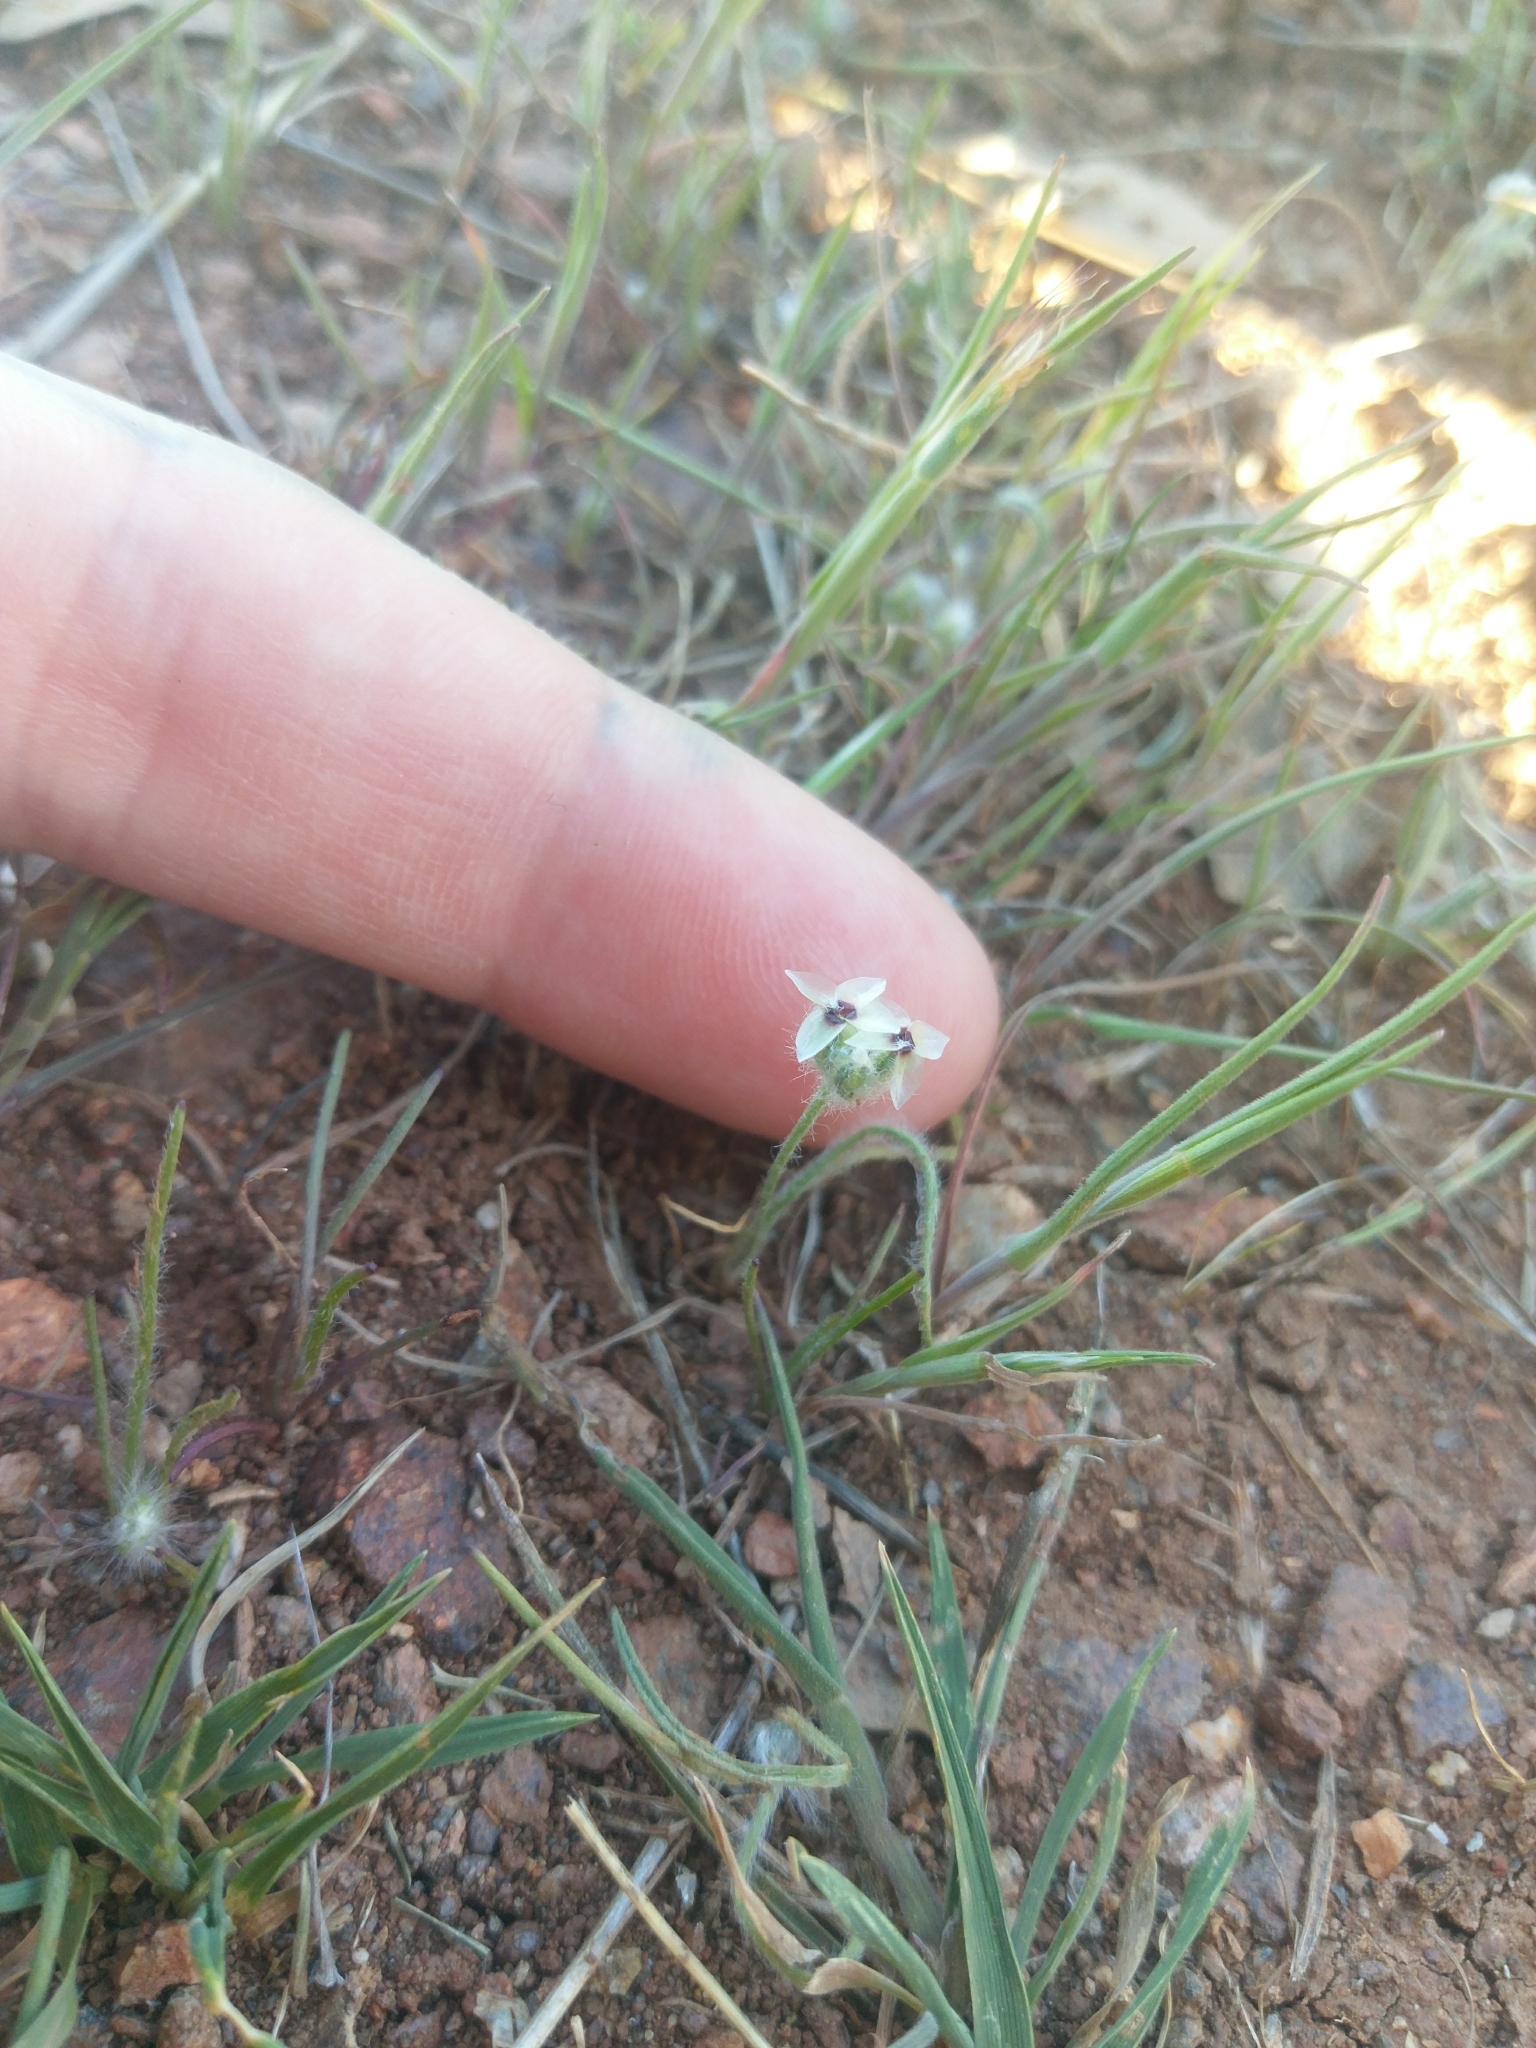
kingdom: Plantae
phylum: Tracheophyta
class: Magnoliopsida
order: Lamiales
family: Plantaginaceae
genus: Plantago
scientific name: Plantago erecta
